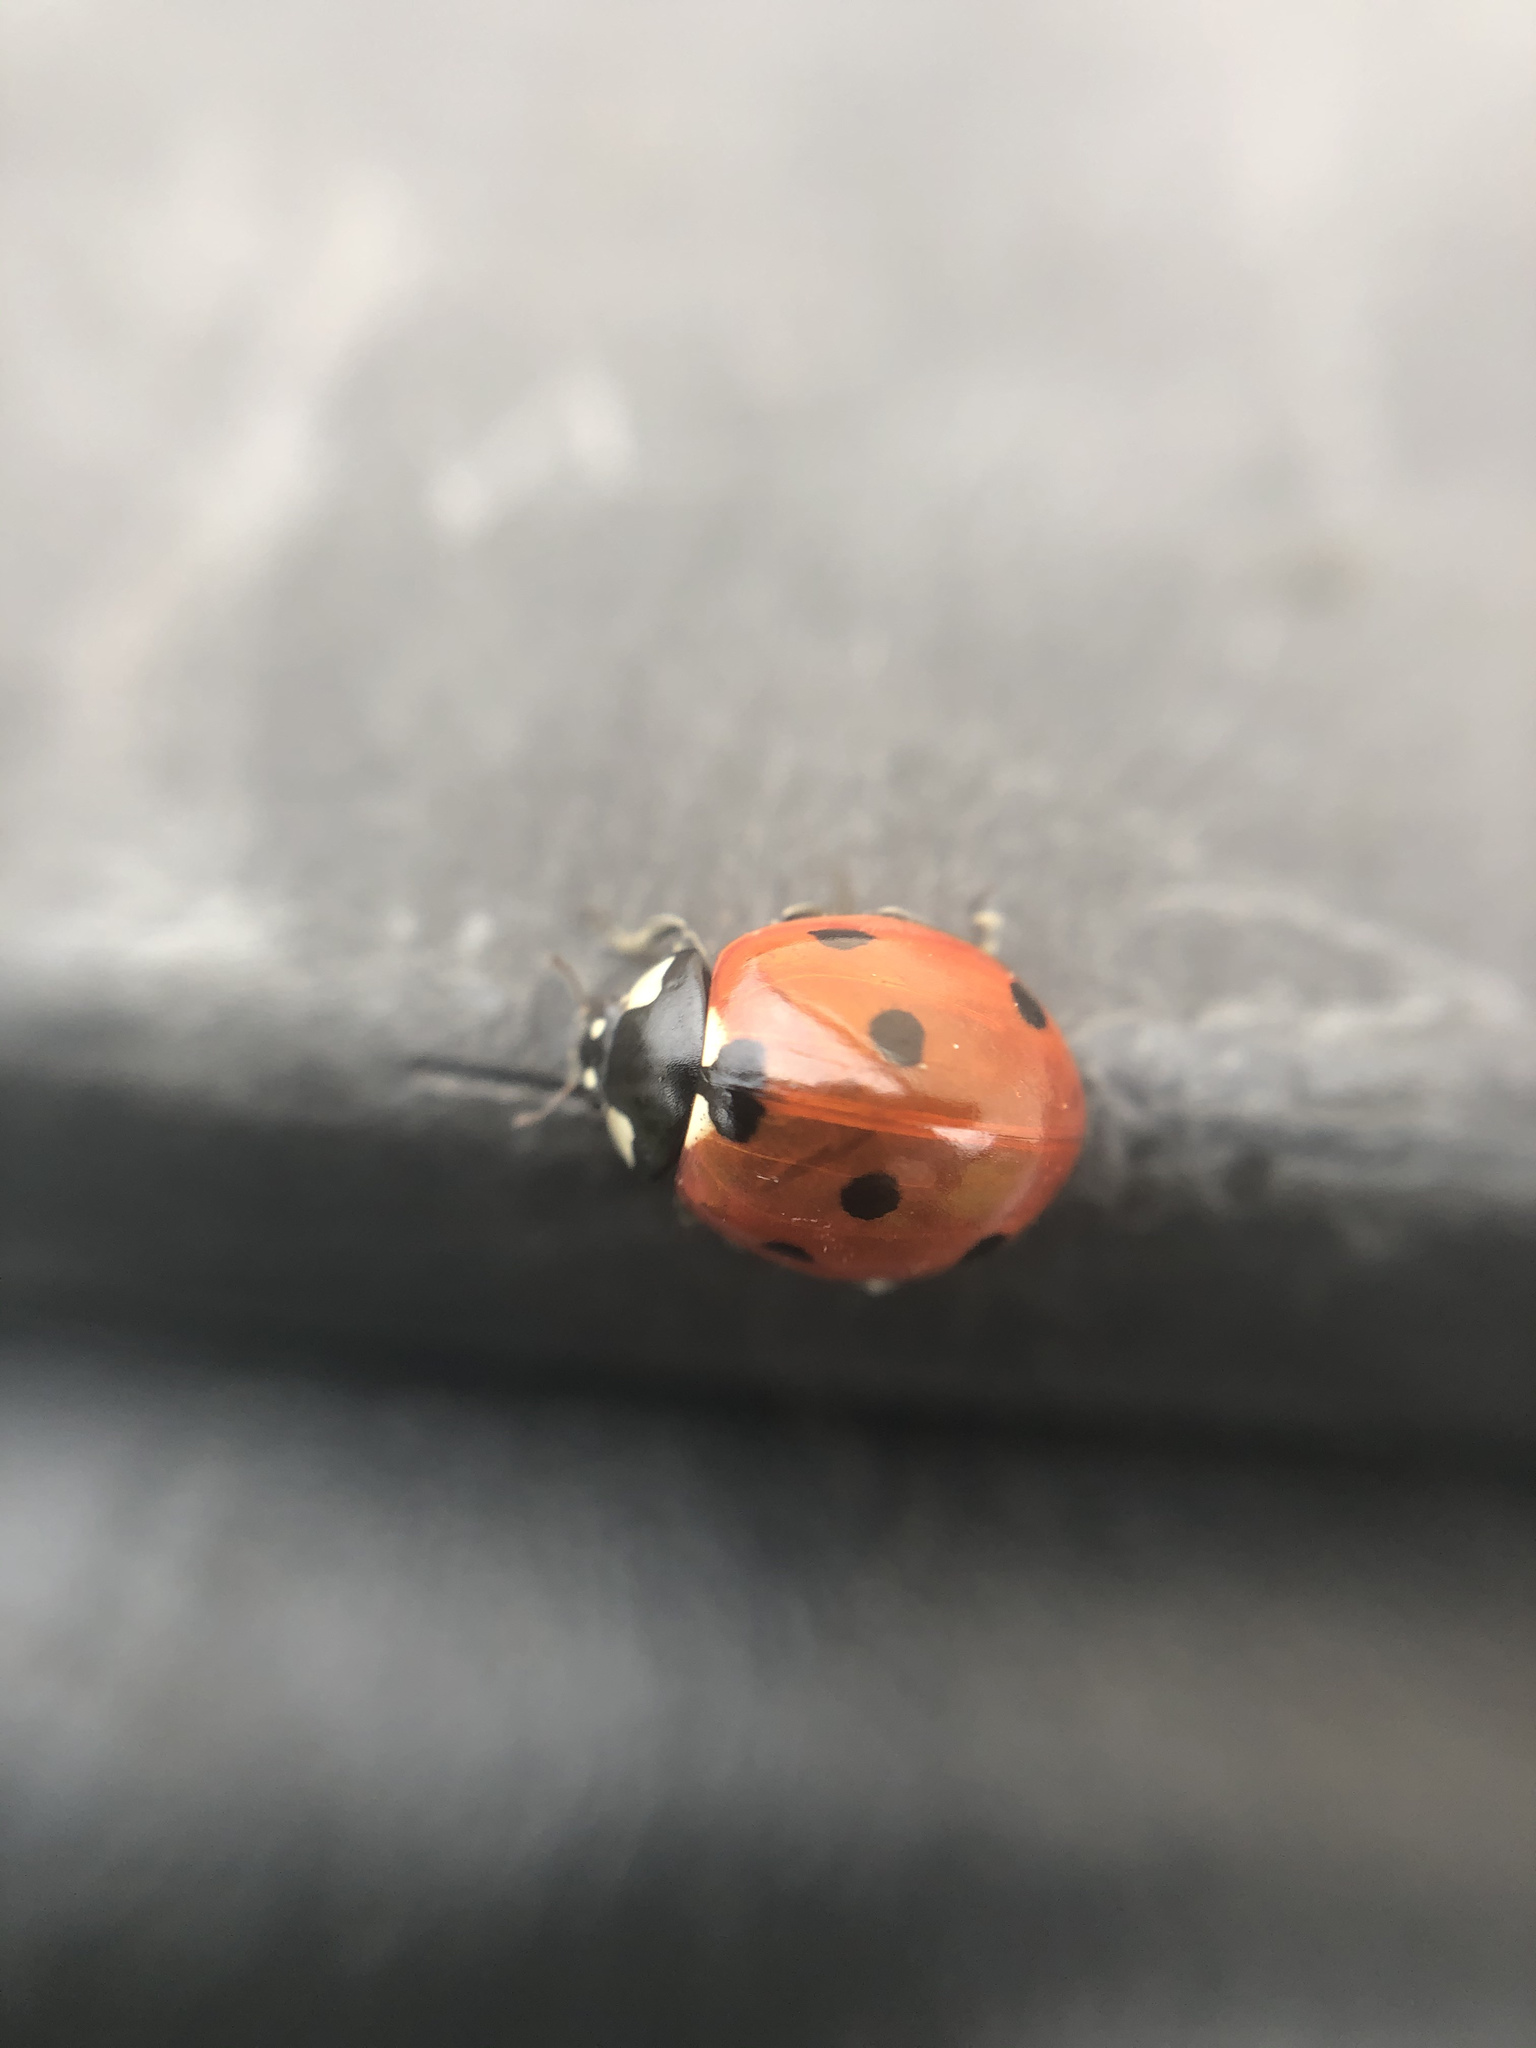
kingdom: Animalia
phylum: Arthropoda
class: Insecta
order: Coleoptera
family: Coccinellidae
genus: Coccinella
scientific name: Coccinella septempunctata
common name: Sevenspotted lady beetle
